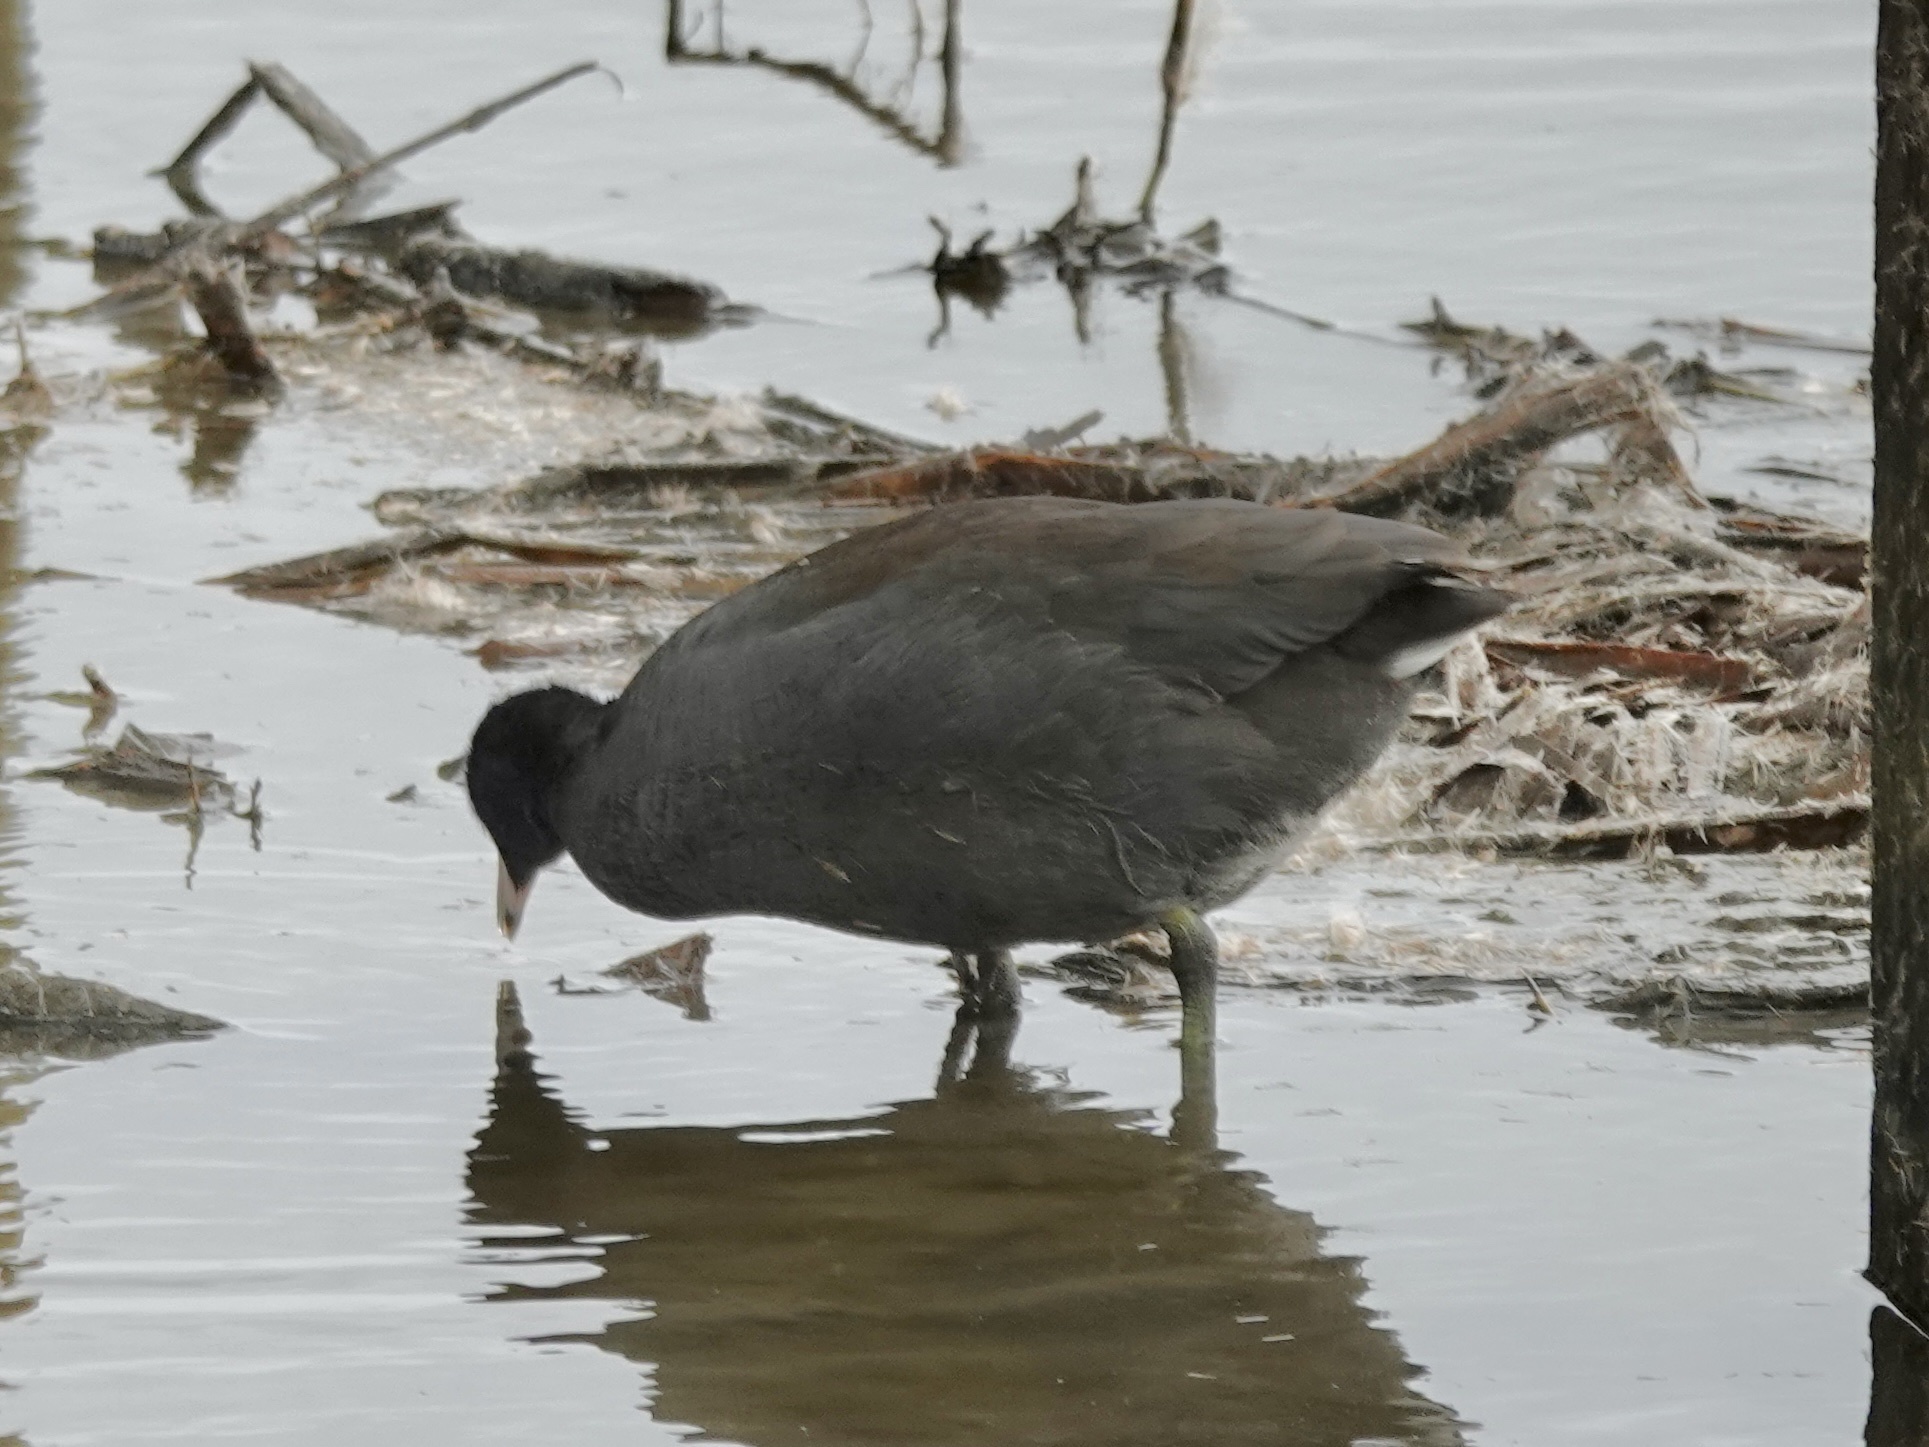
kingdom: Animalia
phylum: Chordata
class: Aves
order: Gruiformes
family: Rallidae
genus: Fulica
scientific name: Fulica americana
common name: American coot
